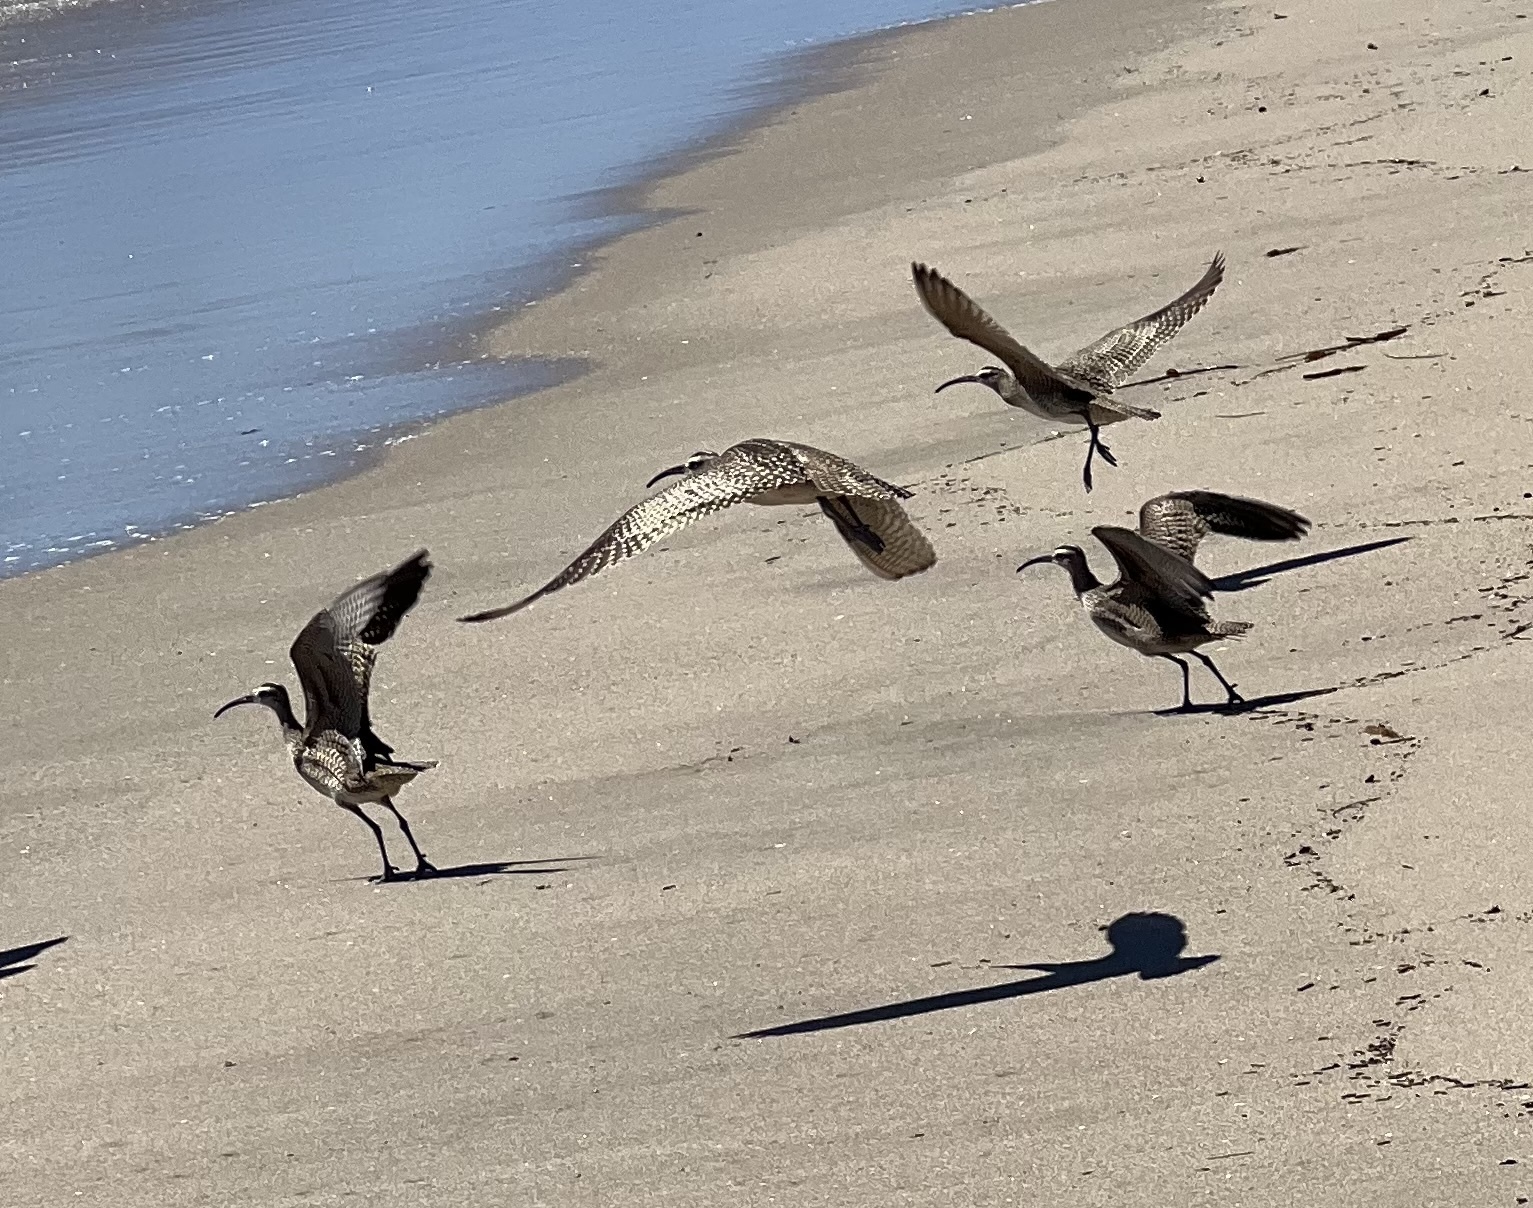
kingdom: Animalia
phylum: Chordata
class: Aves
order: Charadriiformes
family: Scolopacidae
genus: Numenius
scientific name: Numenius phaeopus
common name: Whimbrel
